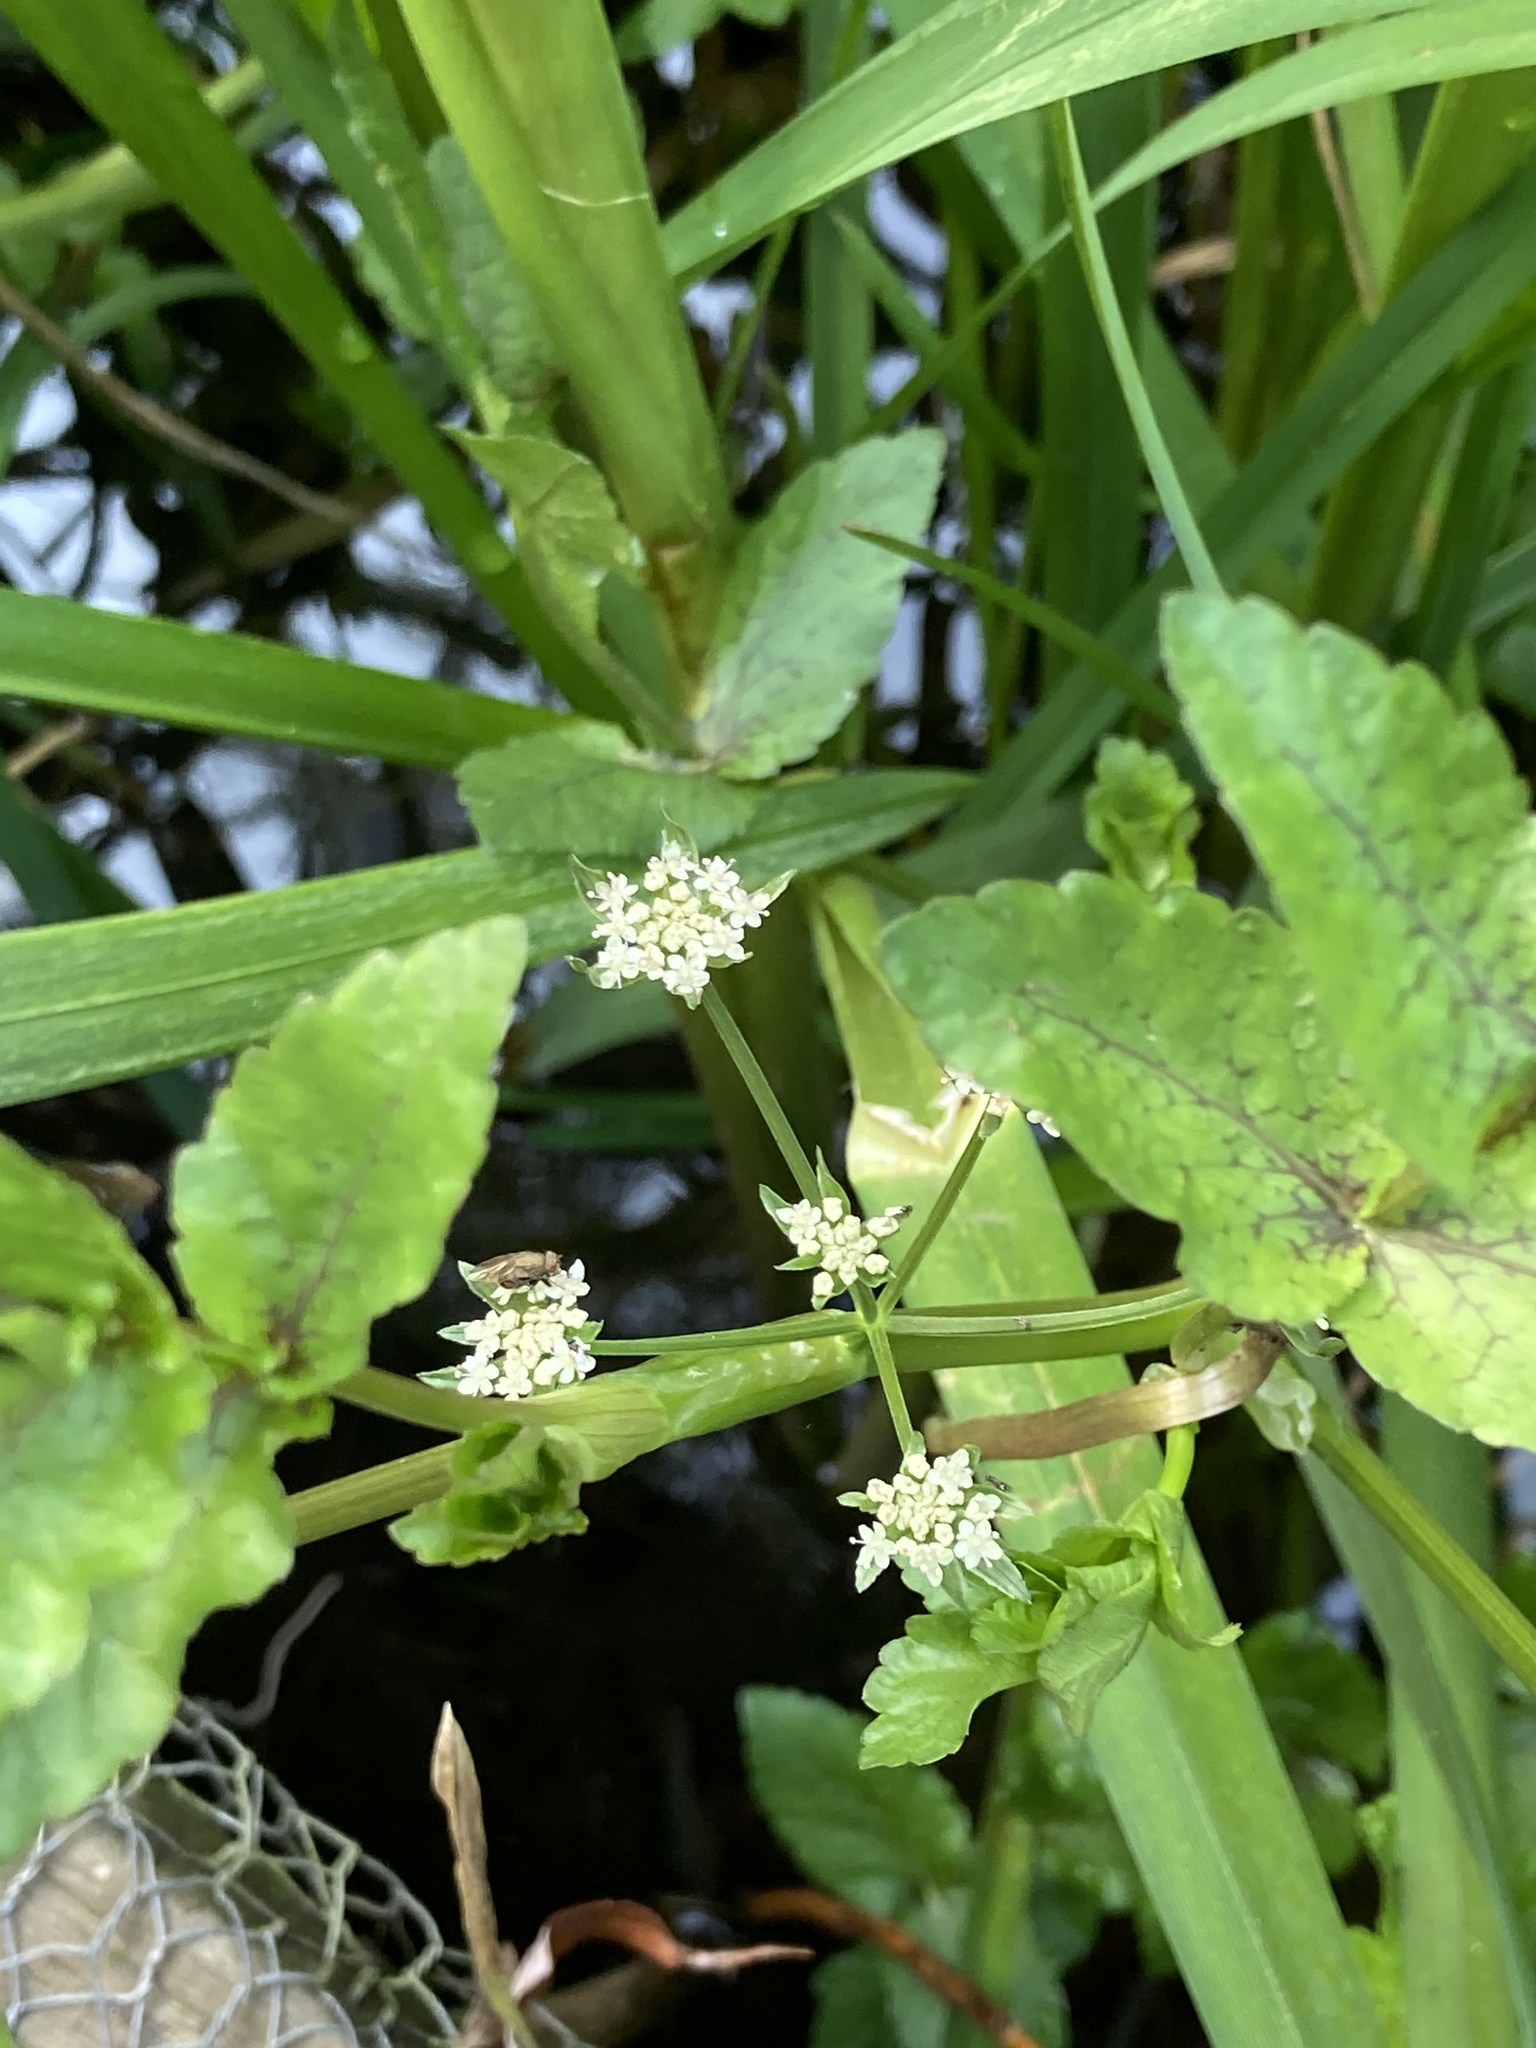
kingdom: Plantae
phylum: Tracheophyta
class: Magnoliopsida
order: Apiales
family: Apiaceae
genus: Helosciadium
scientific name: Helosciadium nodiflorum
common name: Fool's-watercress
